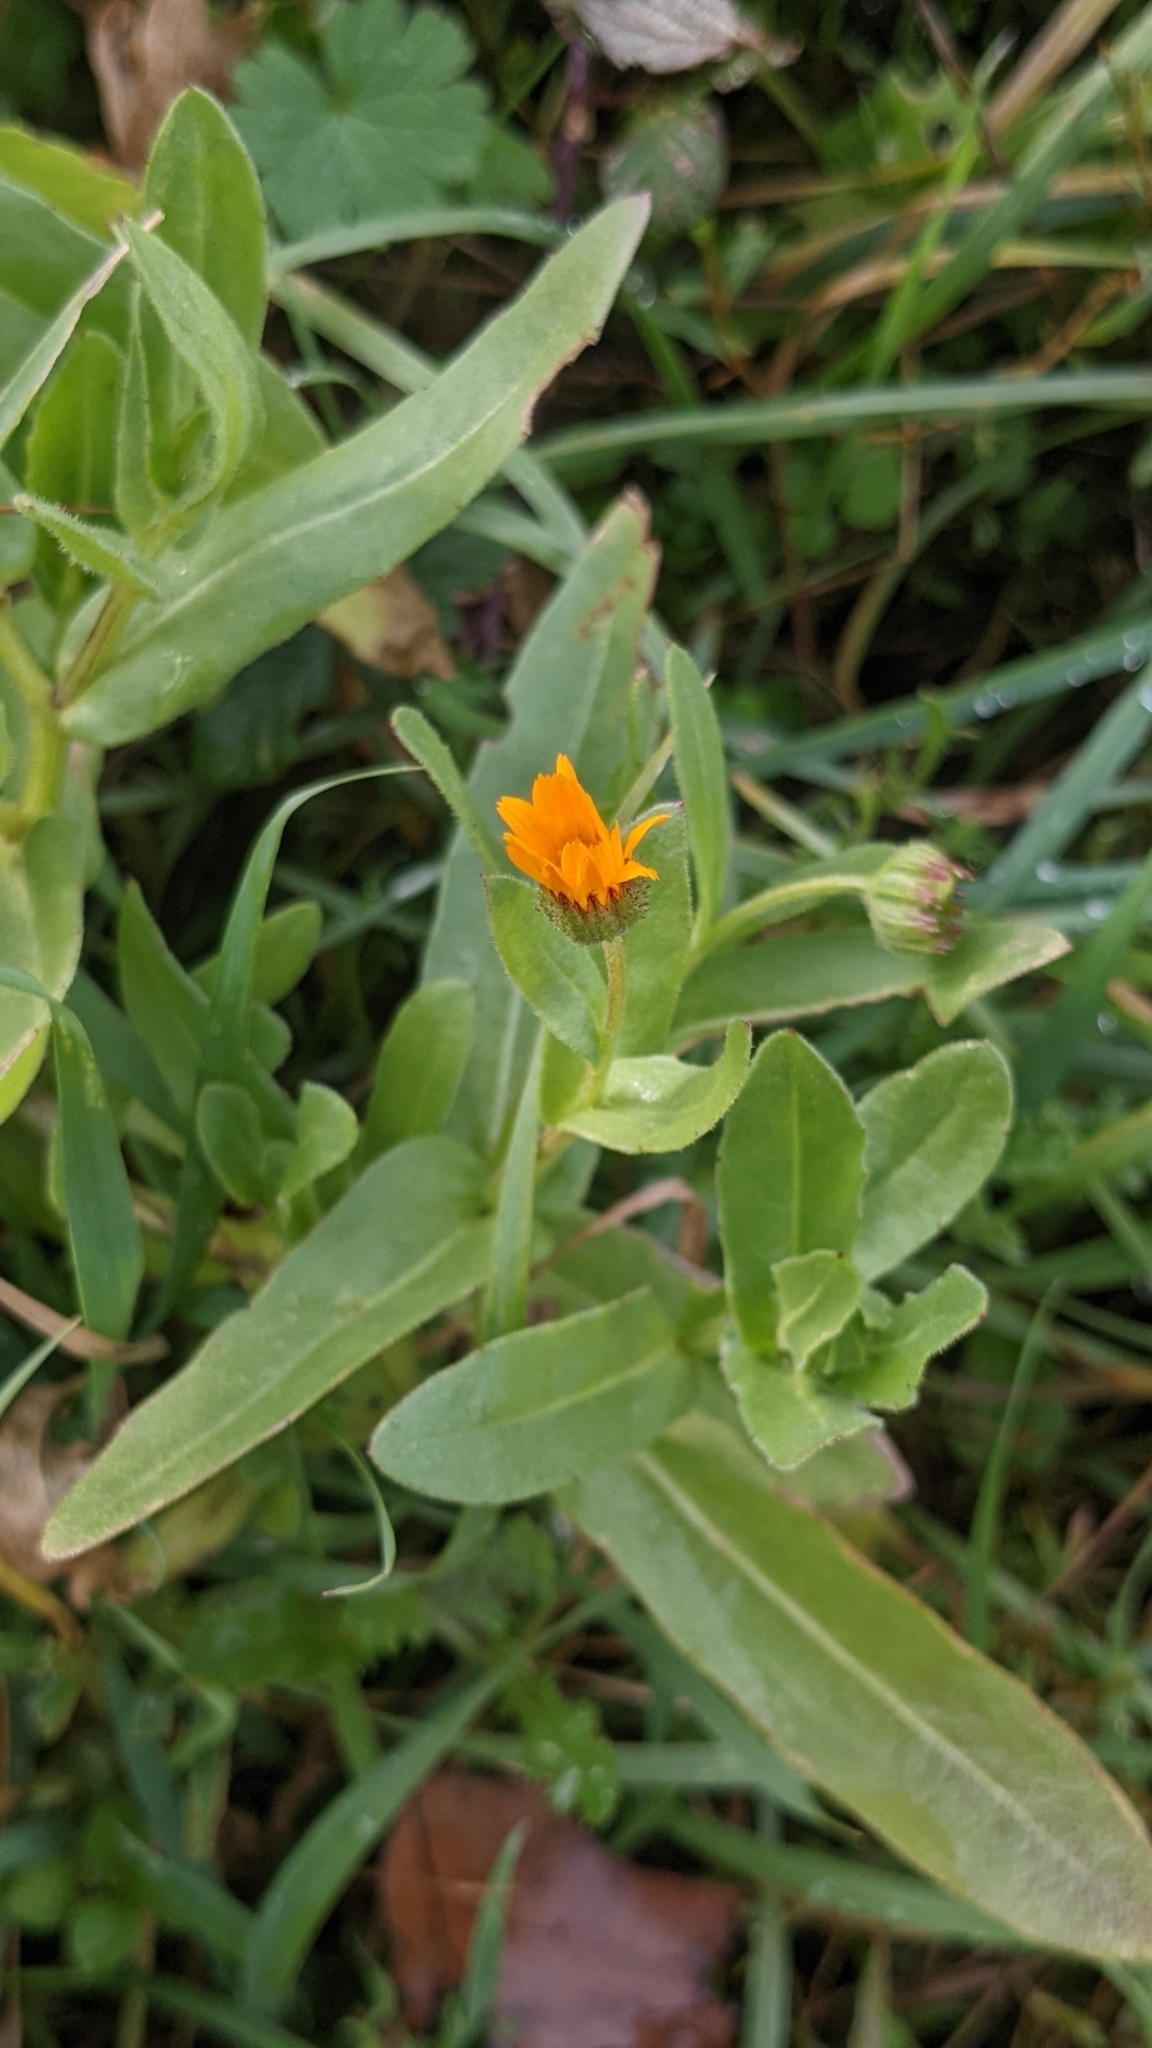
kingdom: Plantae
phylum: Tracheophyta
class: Magnoliopsida
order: Asterales
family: Asteraceae
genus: Calendula
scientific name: Calendula arvensis
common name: Field marigold
